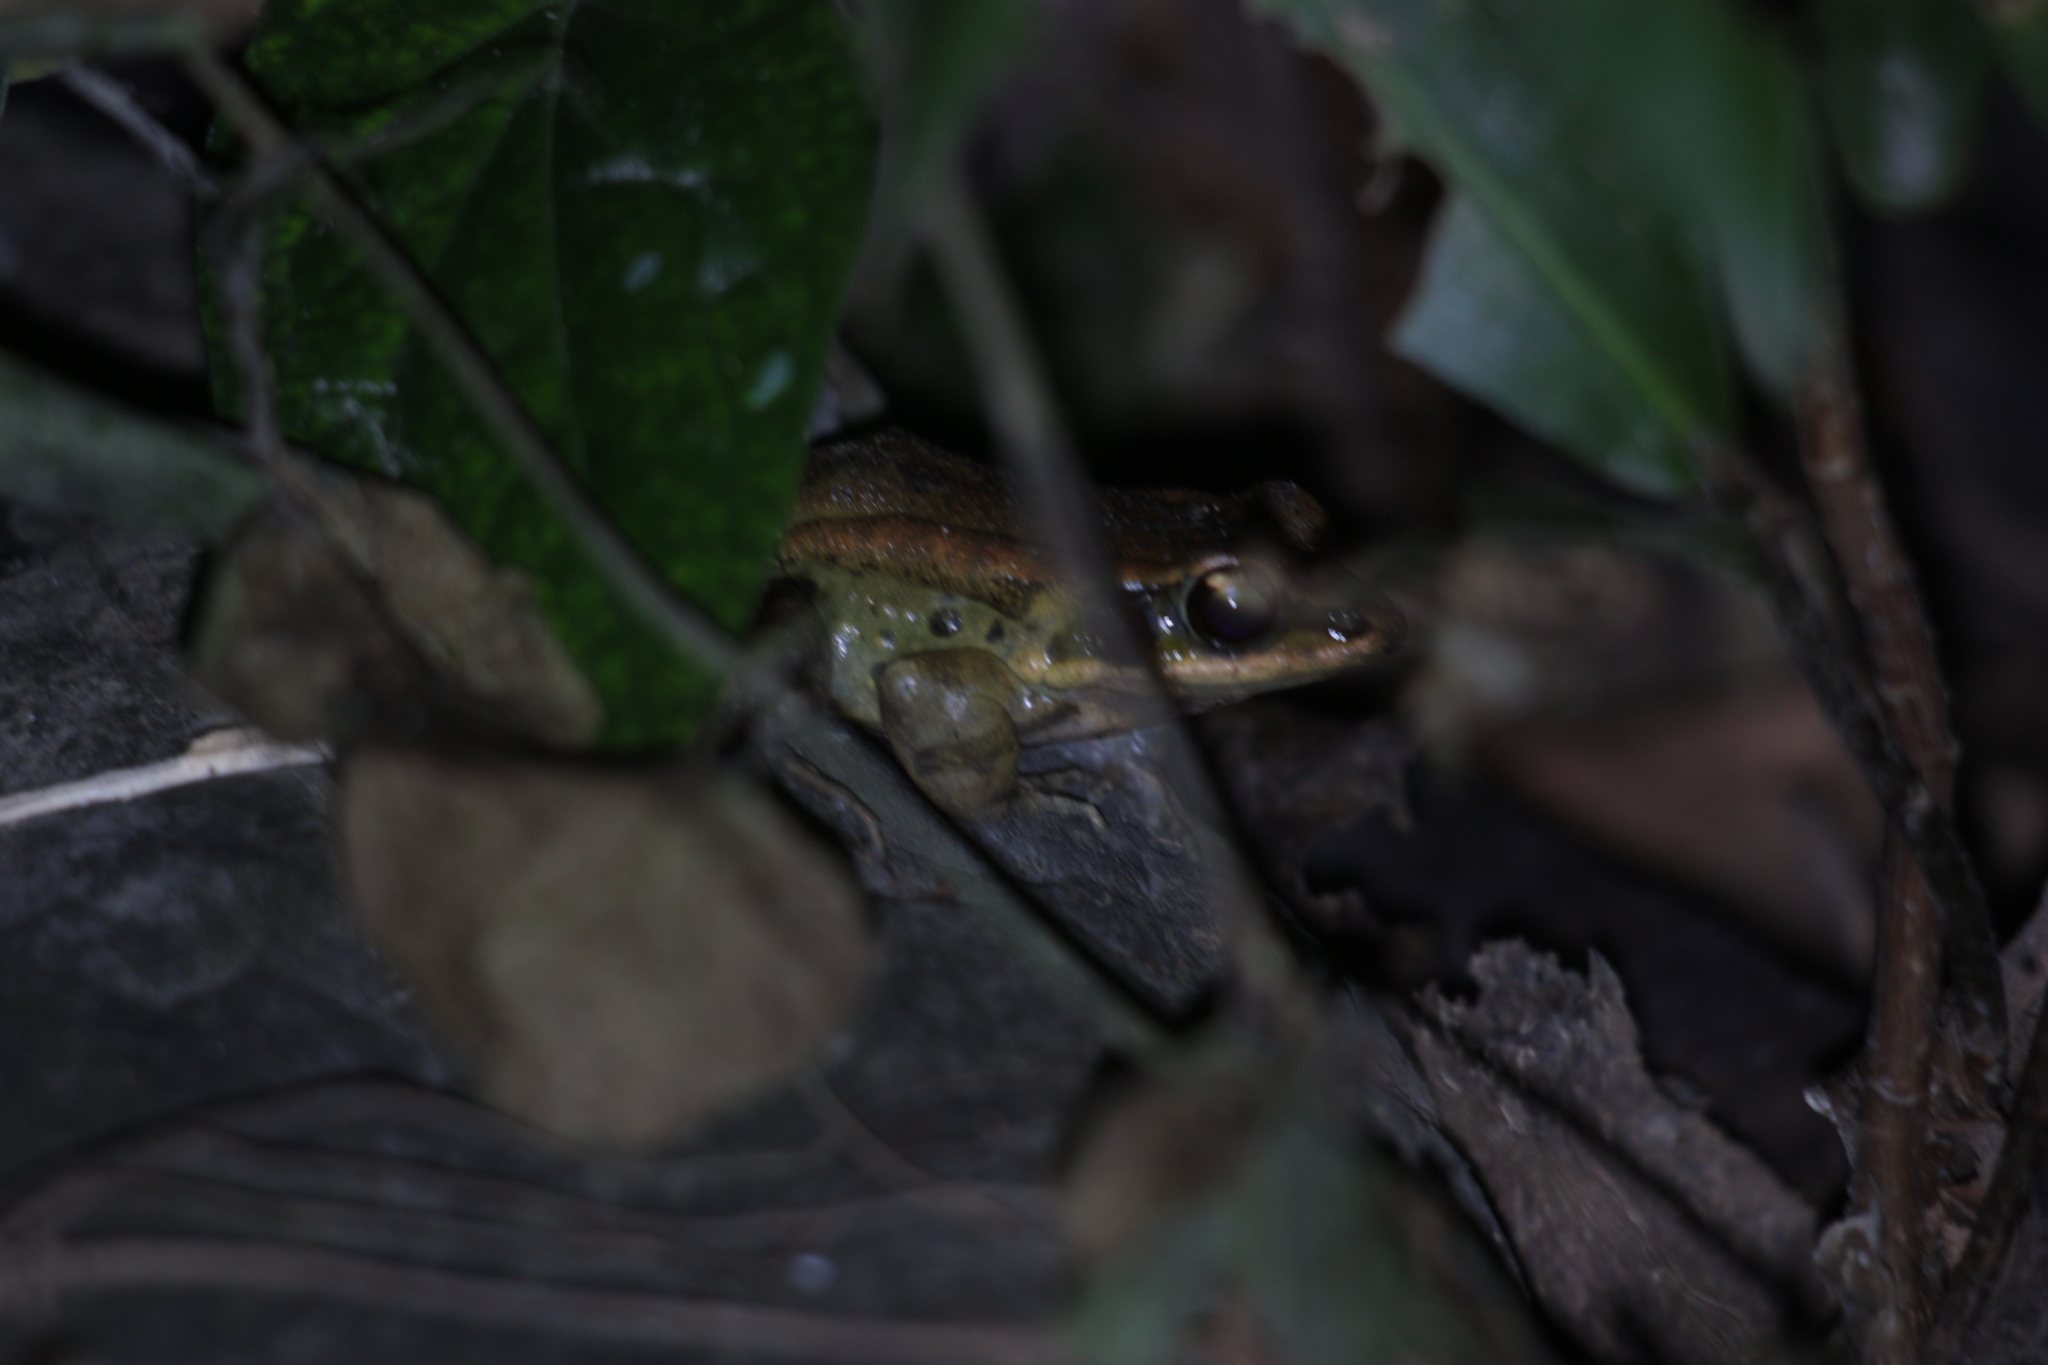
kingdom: Animalia
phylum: Chordata
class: Amphibia
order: Anura
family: Ranidae
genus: Hylarana
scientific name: Hylarana latouchii
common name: Broad-folded frog
